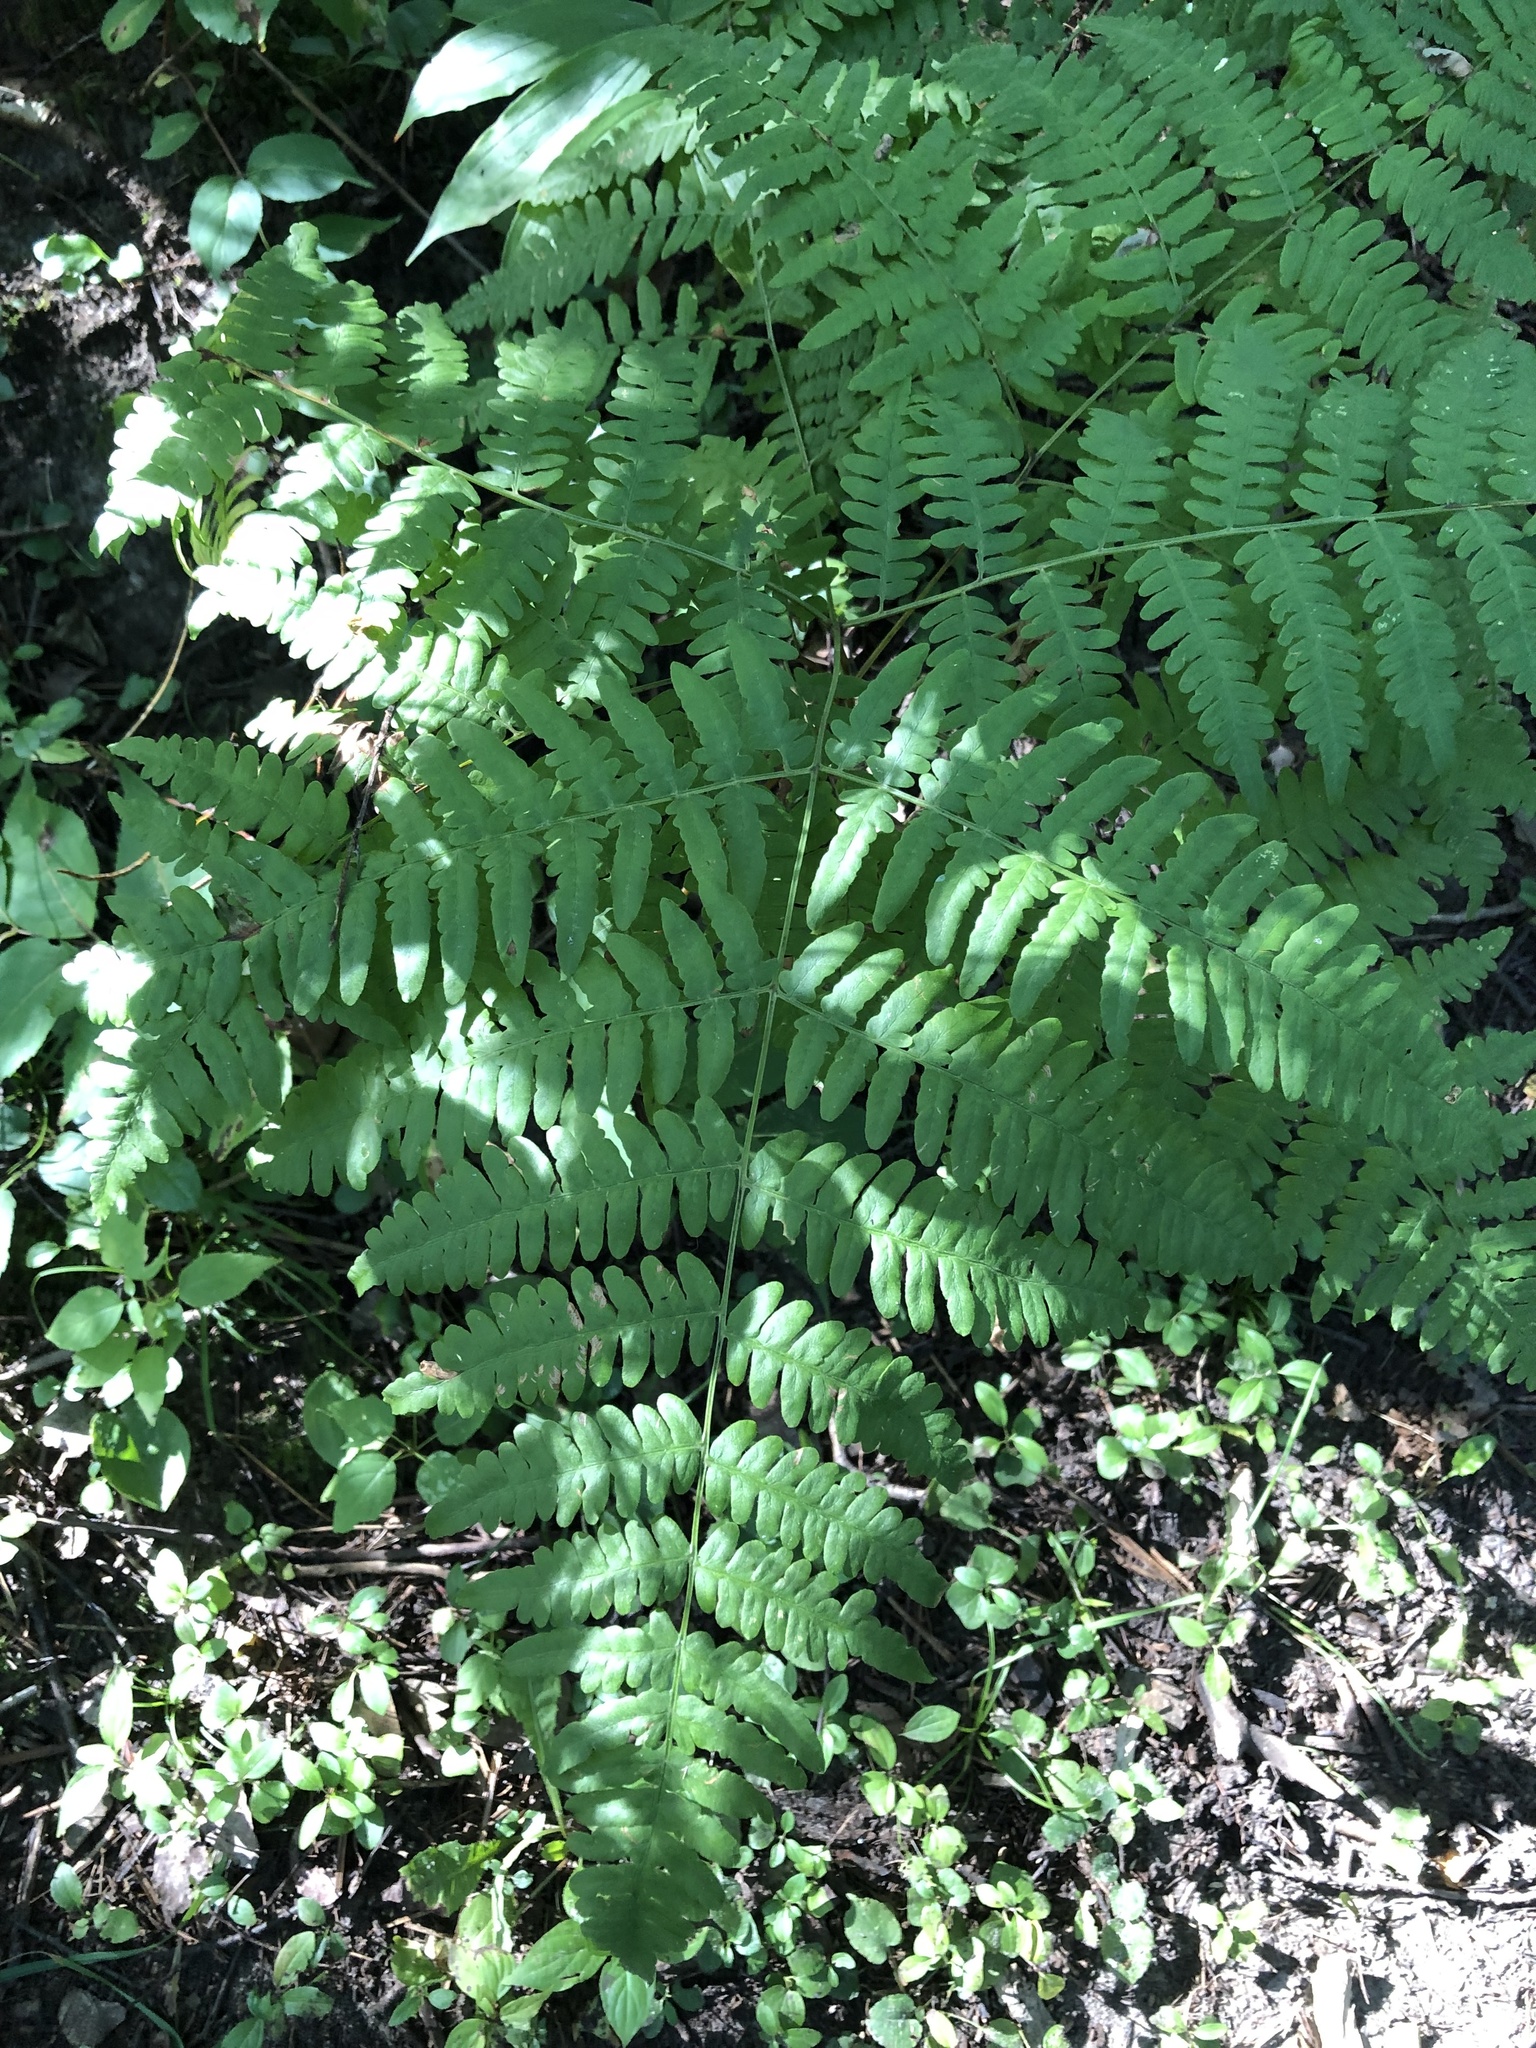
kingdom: Plantae
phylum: Tracheophyta
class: Polypodiopsida
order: Polypodiales
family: Dennstaedtiaceae
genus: Pteridium
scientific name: Pteridium aquilinum
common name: Bracken
